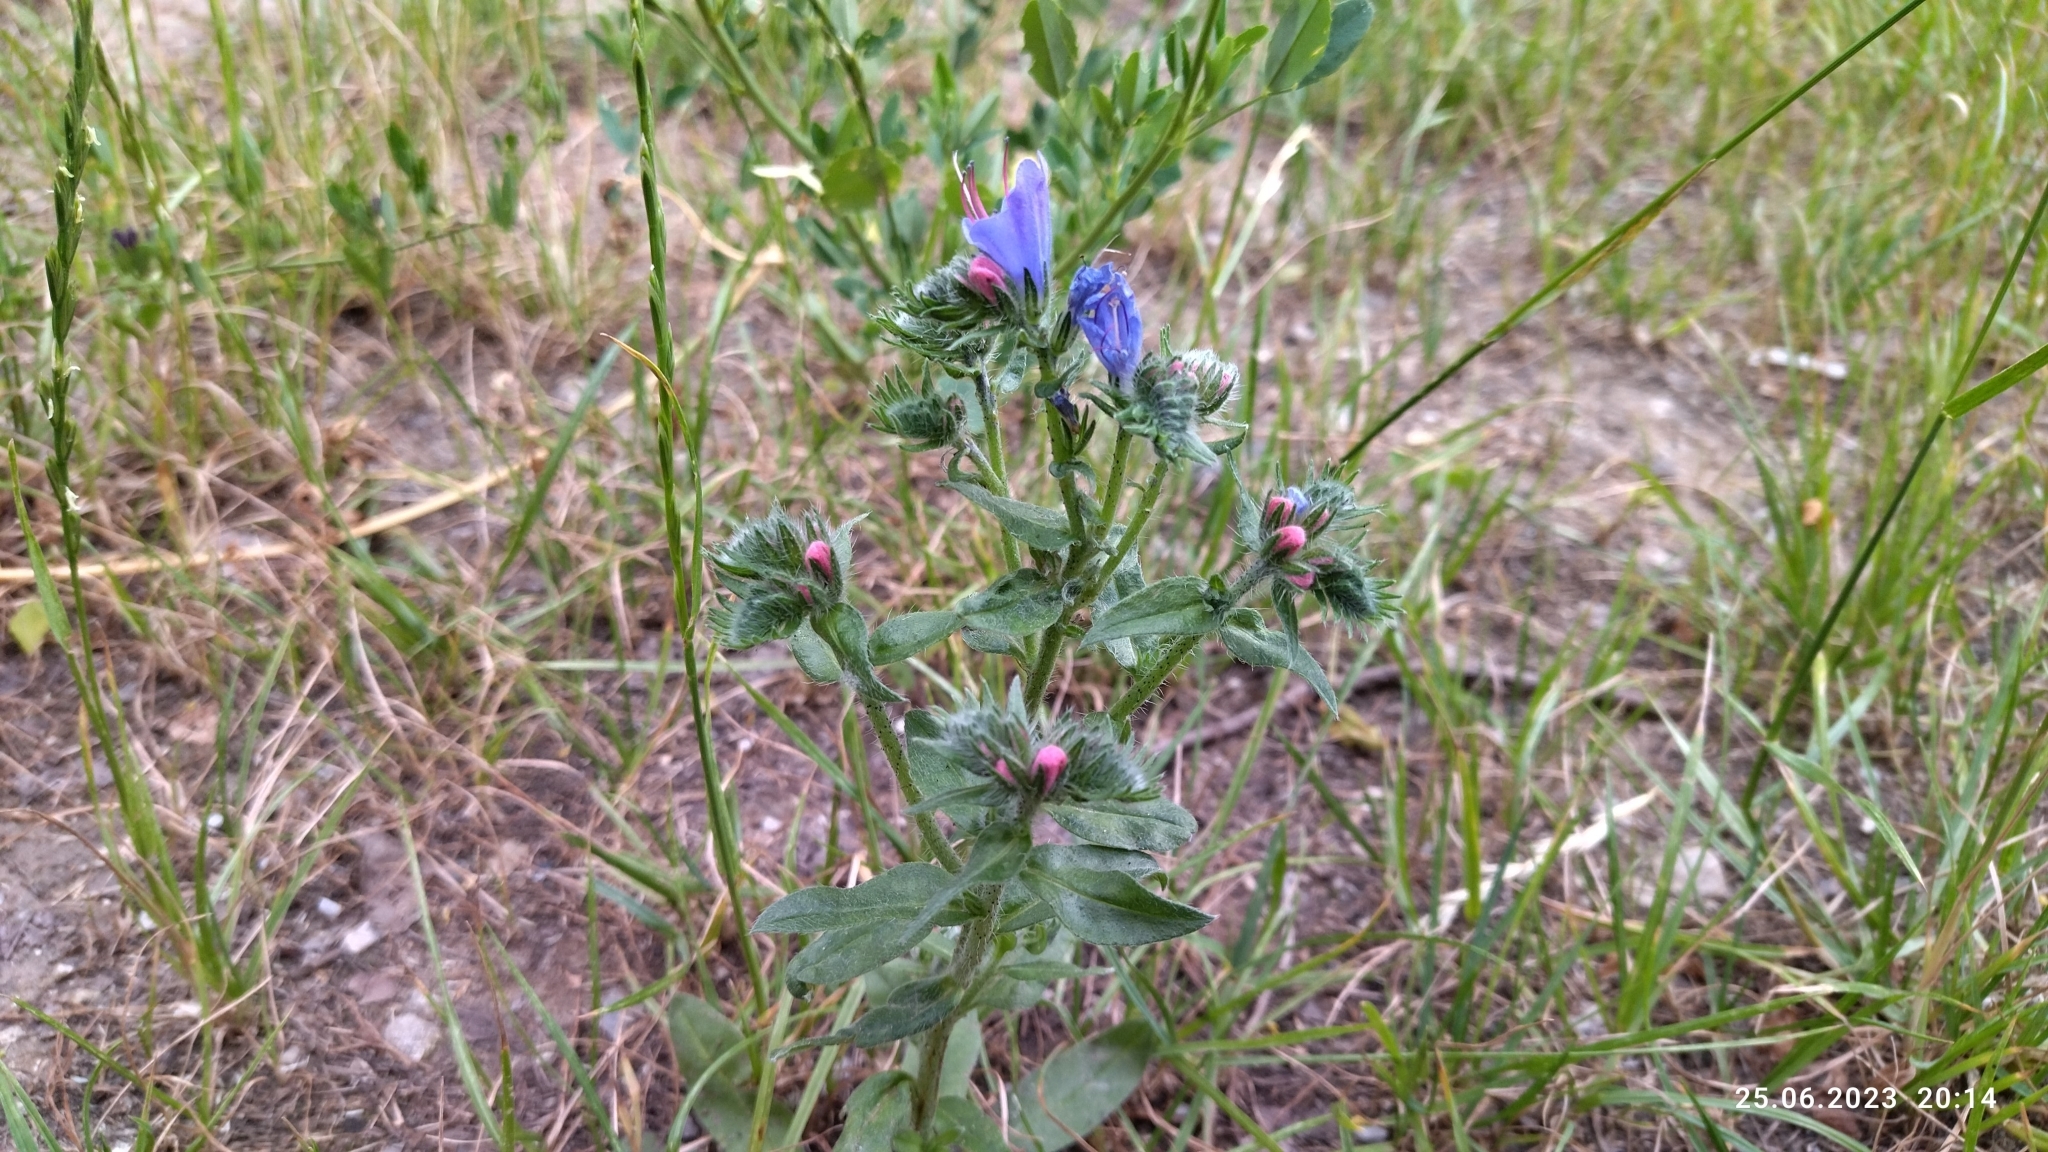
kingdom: Plantae
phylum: Tracheophyta
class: Magnoliopsida
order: Boraginales
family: Boraginaceae
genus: Echium
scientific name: Echium vulgare
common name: Common viper's bugloss
